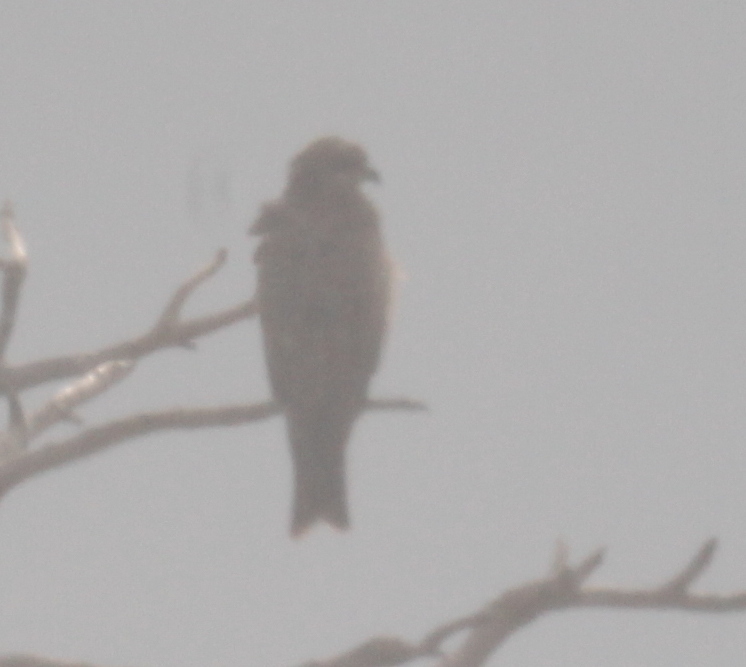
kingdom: Animalia
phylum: Chordata
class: Aves
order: Accipitriformes
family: Accipitridae
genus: Milvus
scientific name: Milvus migrans
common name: Black kite
